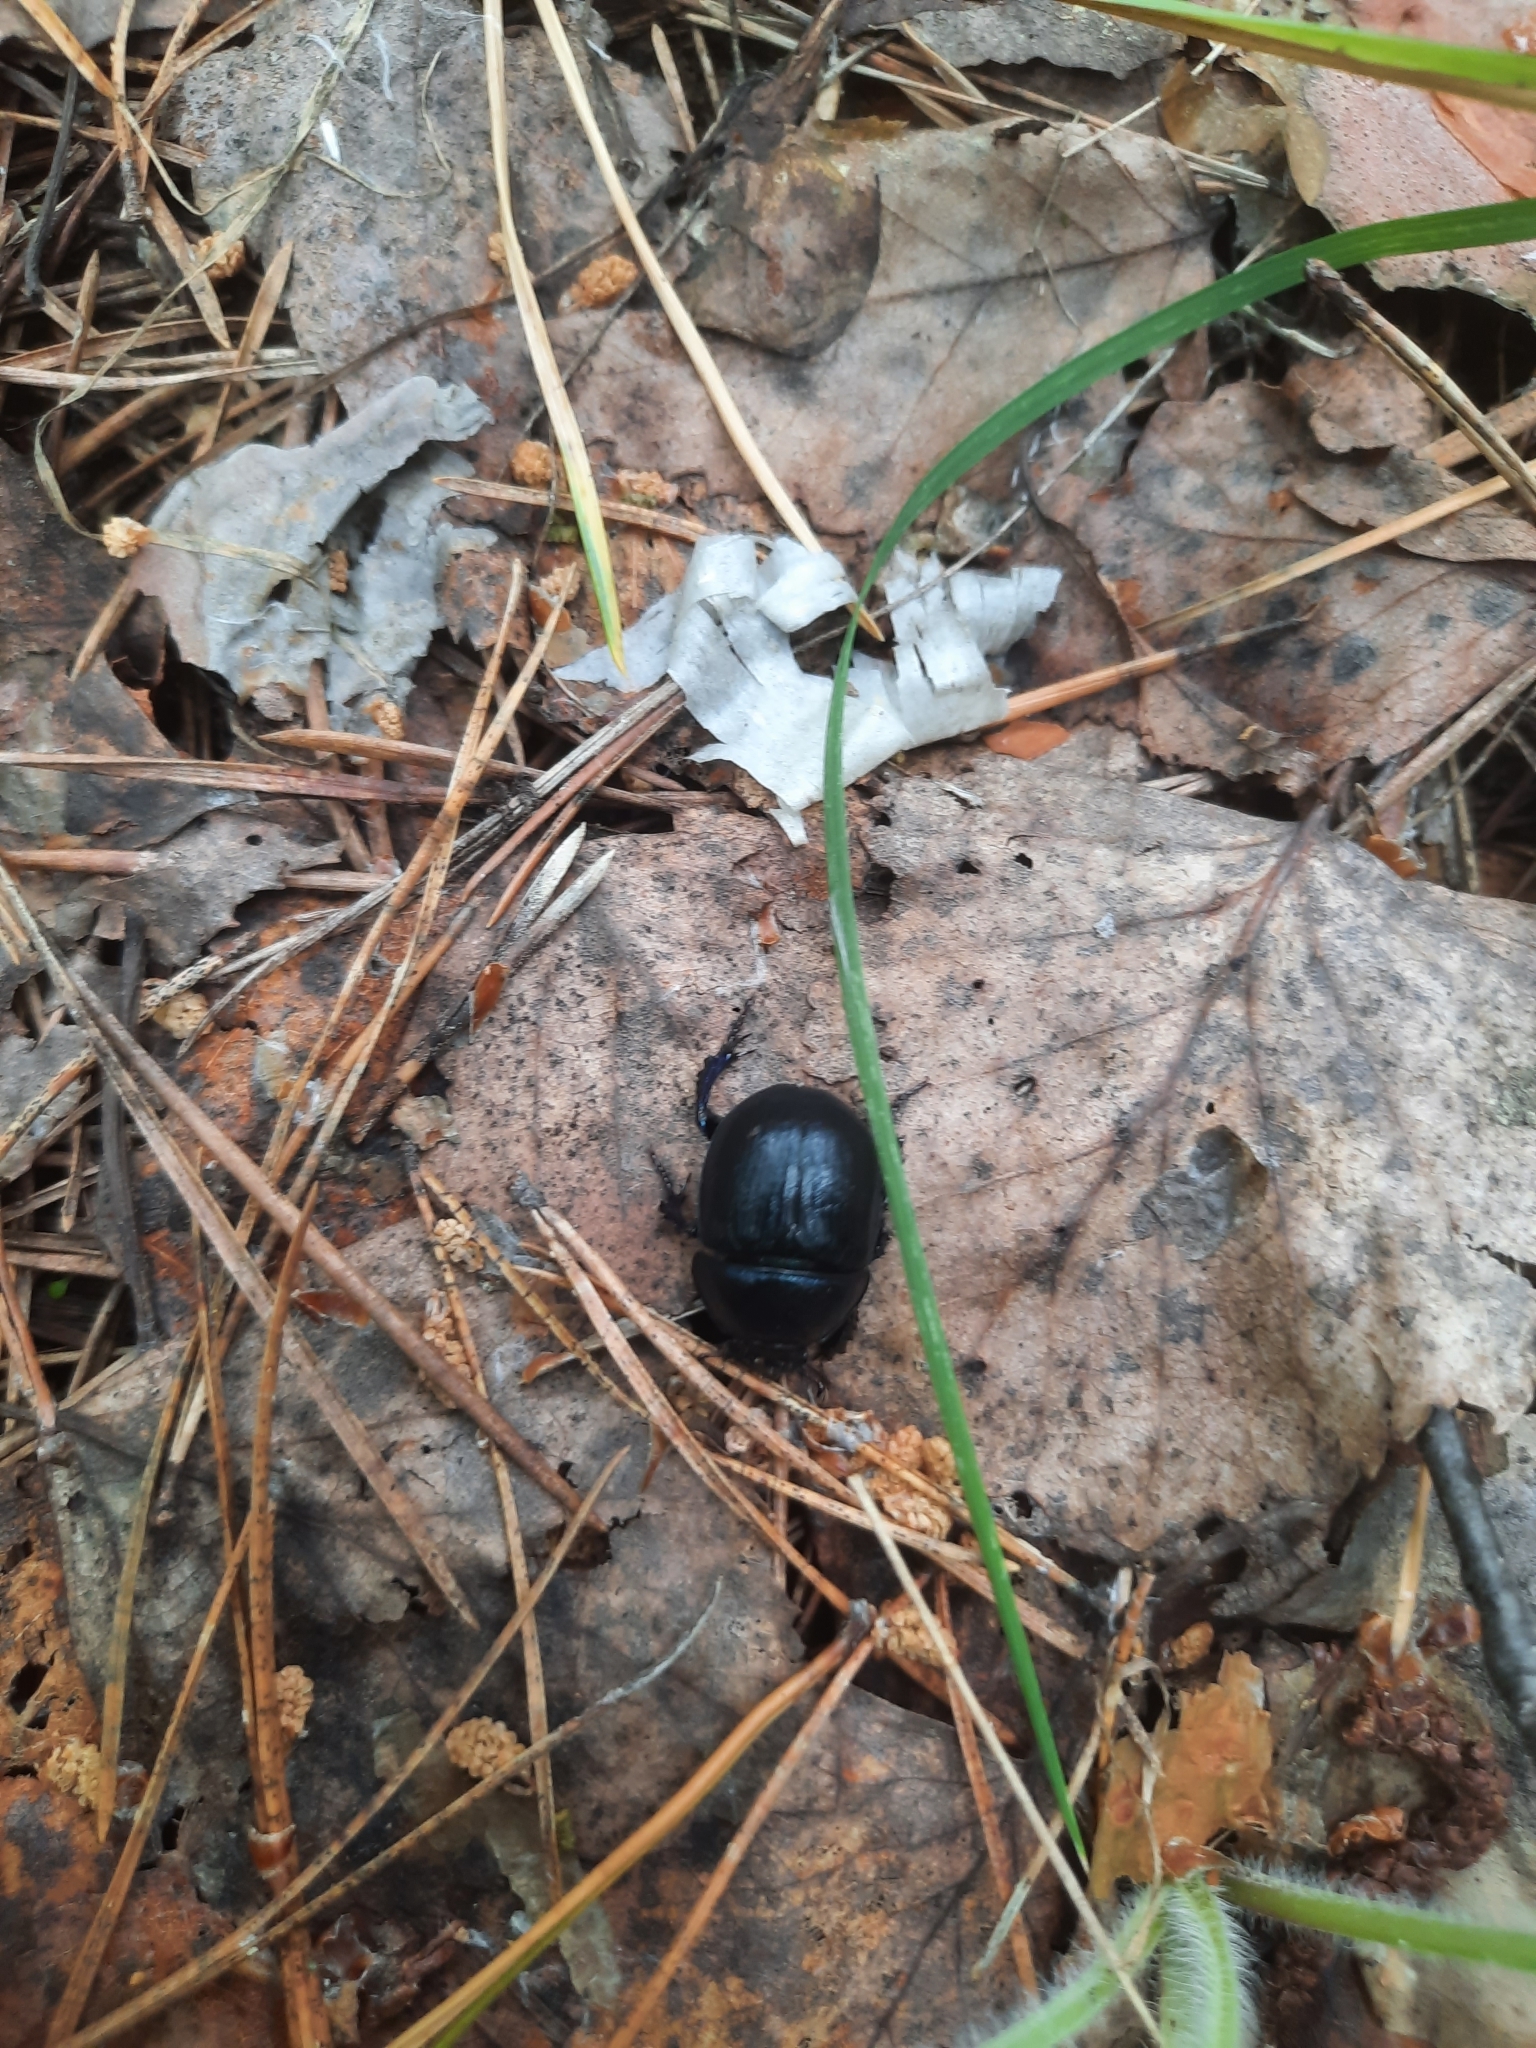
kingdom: Animalia
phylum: Arthropoda
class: Insecta
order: Coleoptera
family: Geotrupidae
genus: Anoplotrupes
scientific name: Anoplotrupes stercorosus
